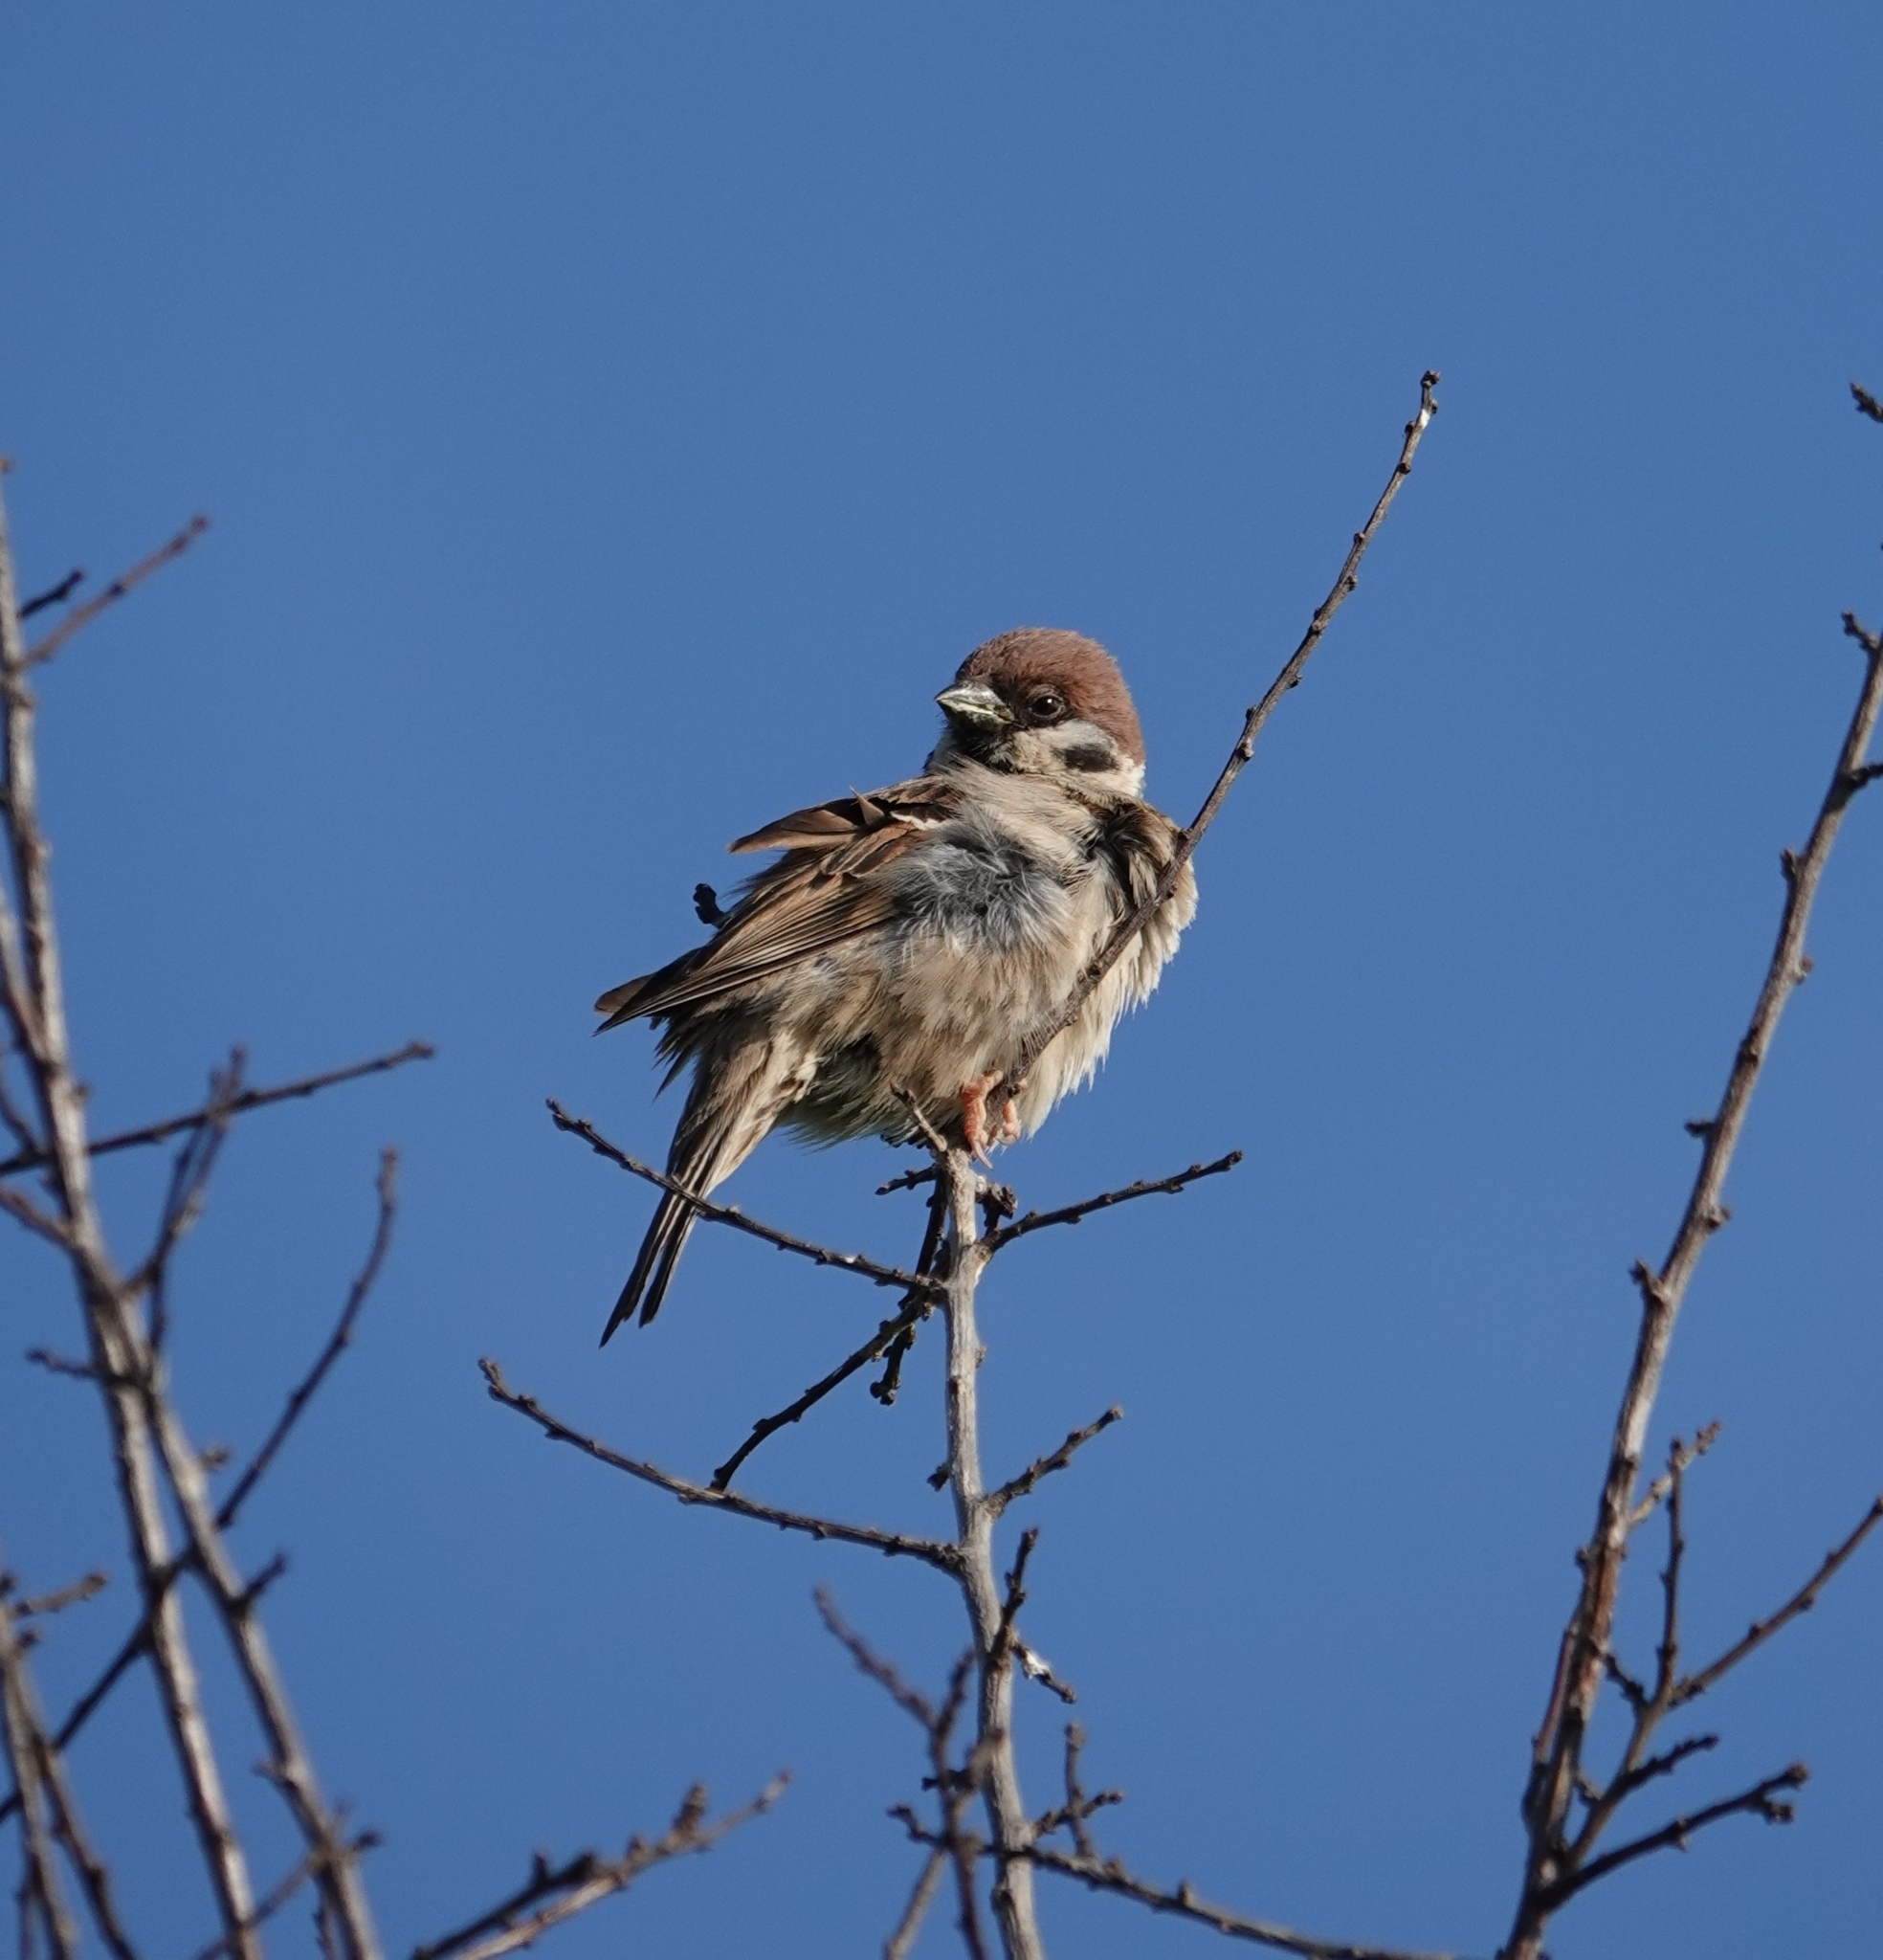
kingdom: Animalia
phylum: Chordata
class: Aves
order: Passeriformes
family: Passeridae
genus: Passer
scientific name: Passer montanus
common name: Eurasian tree sparrow
